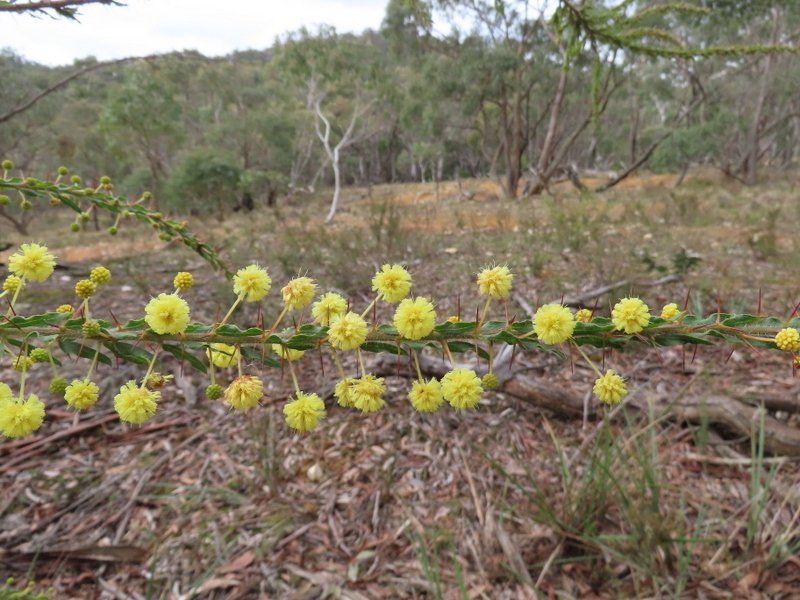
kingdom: Plantae
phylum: Tracheophyta
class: Magnoliopsida
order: Fabales
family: Fabaceae
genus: Acacia
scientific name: Acacia paradoxa
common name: Paradox acacia
